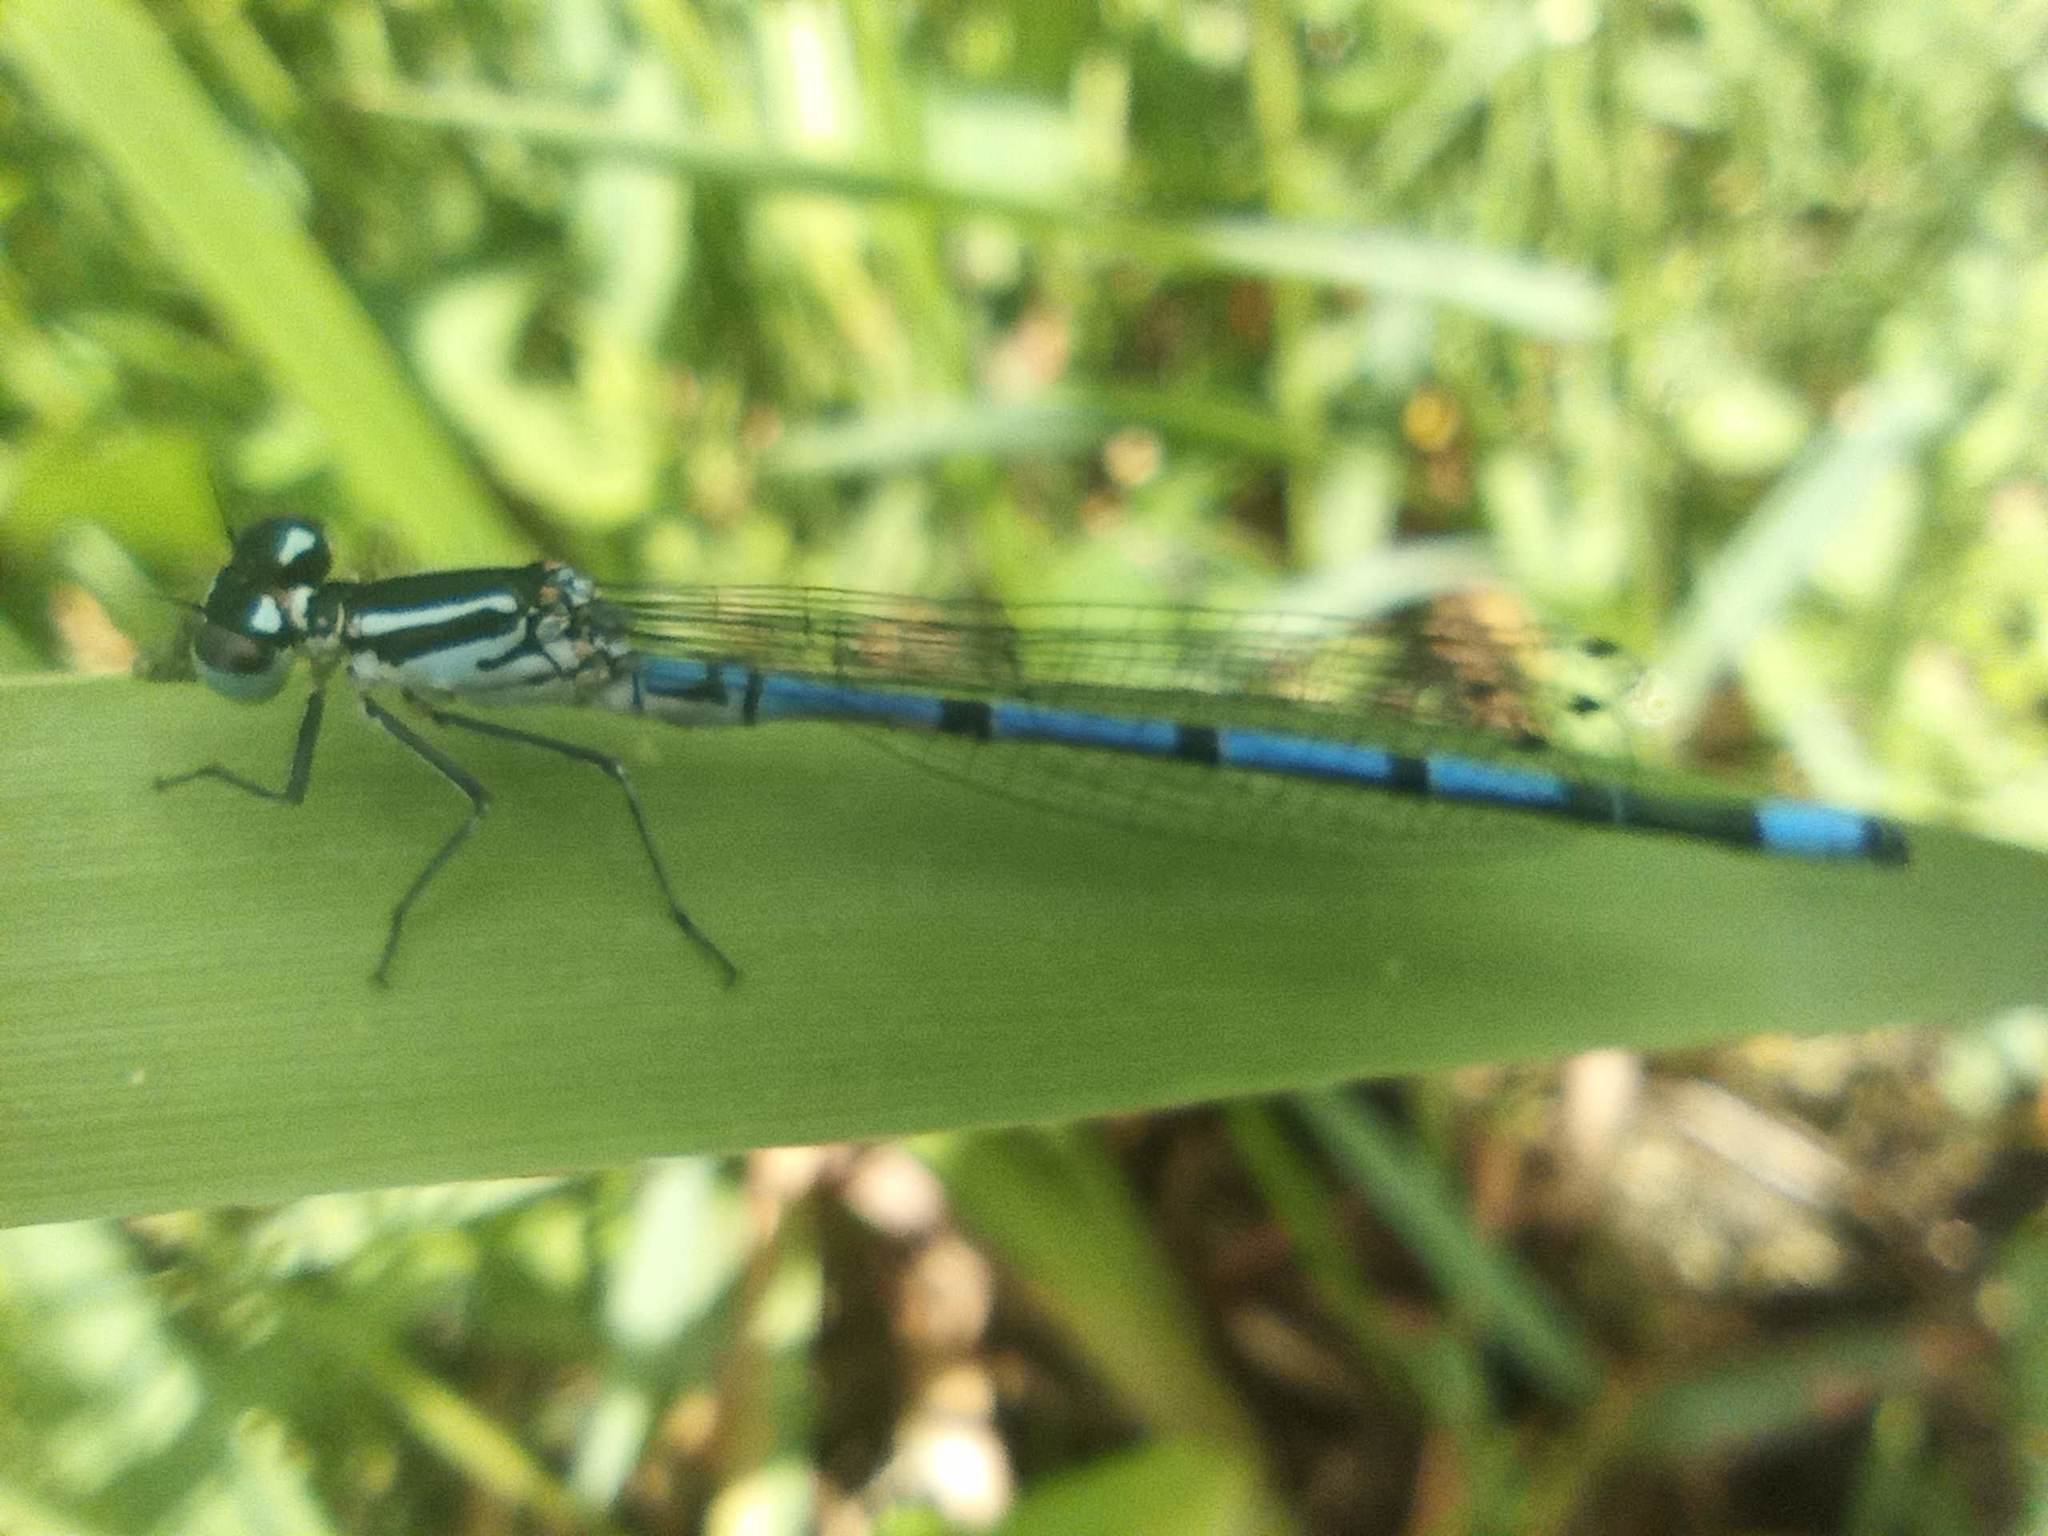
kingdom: Animalia
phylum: Arthropoda
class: Insecta
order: Odonata
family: Coenagrionidae
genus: Coenagrion
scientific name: Coenagrion puella
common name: Azure damselfly
